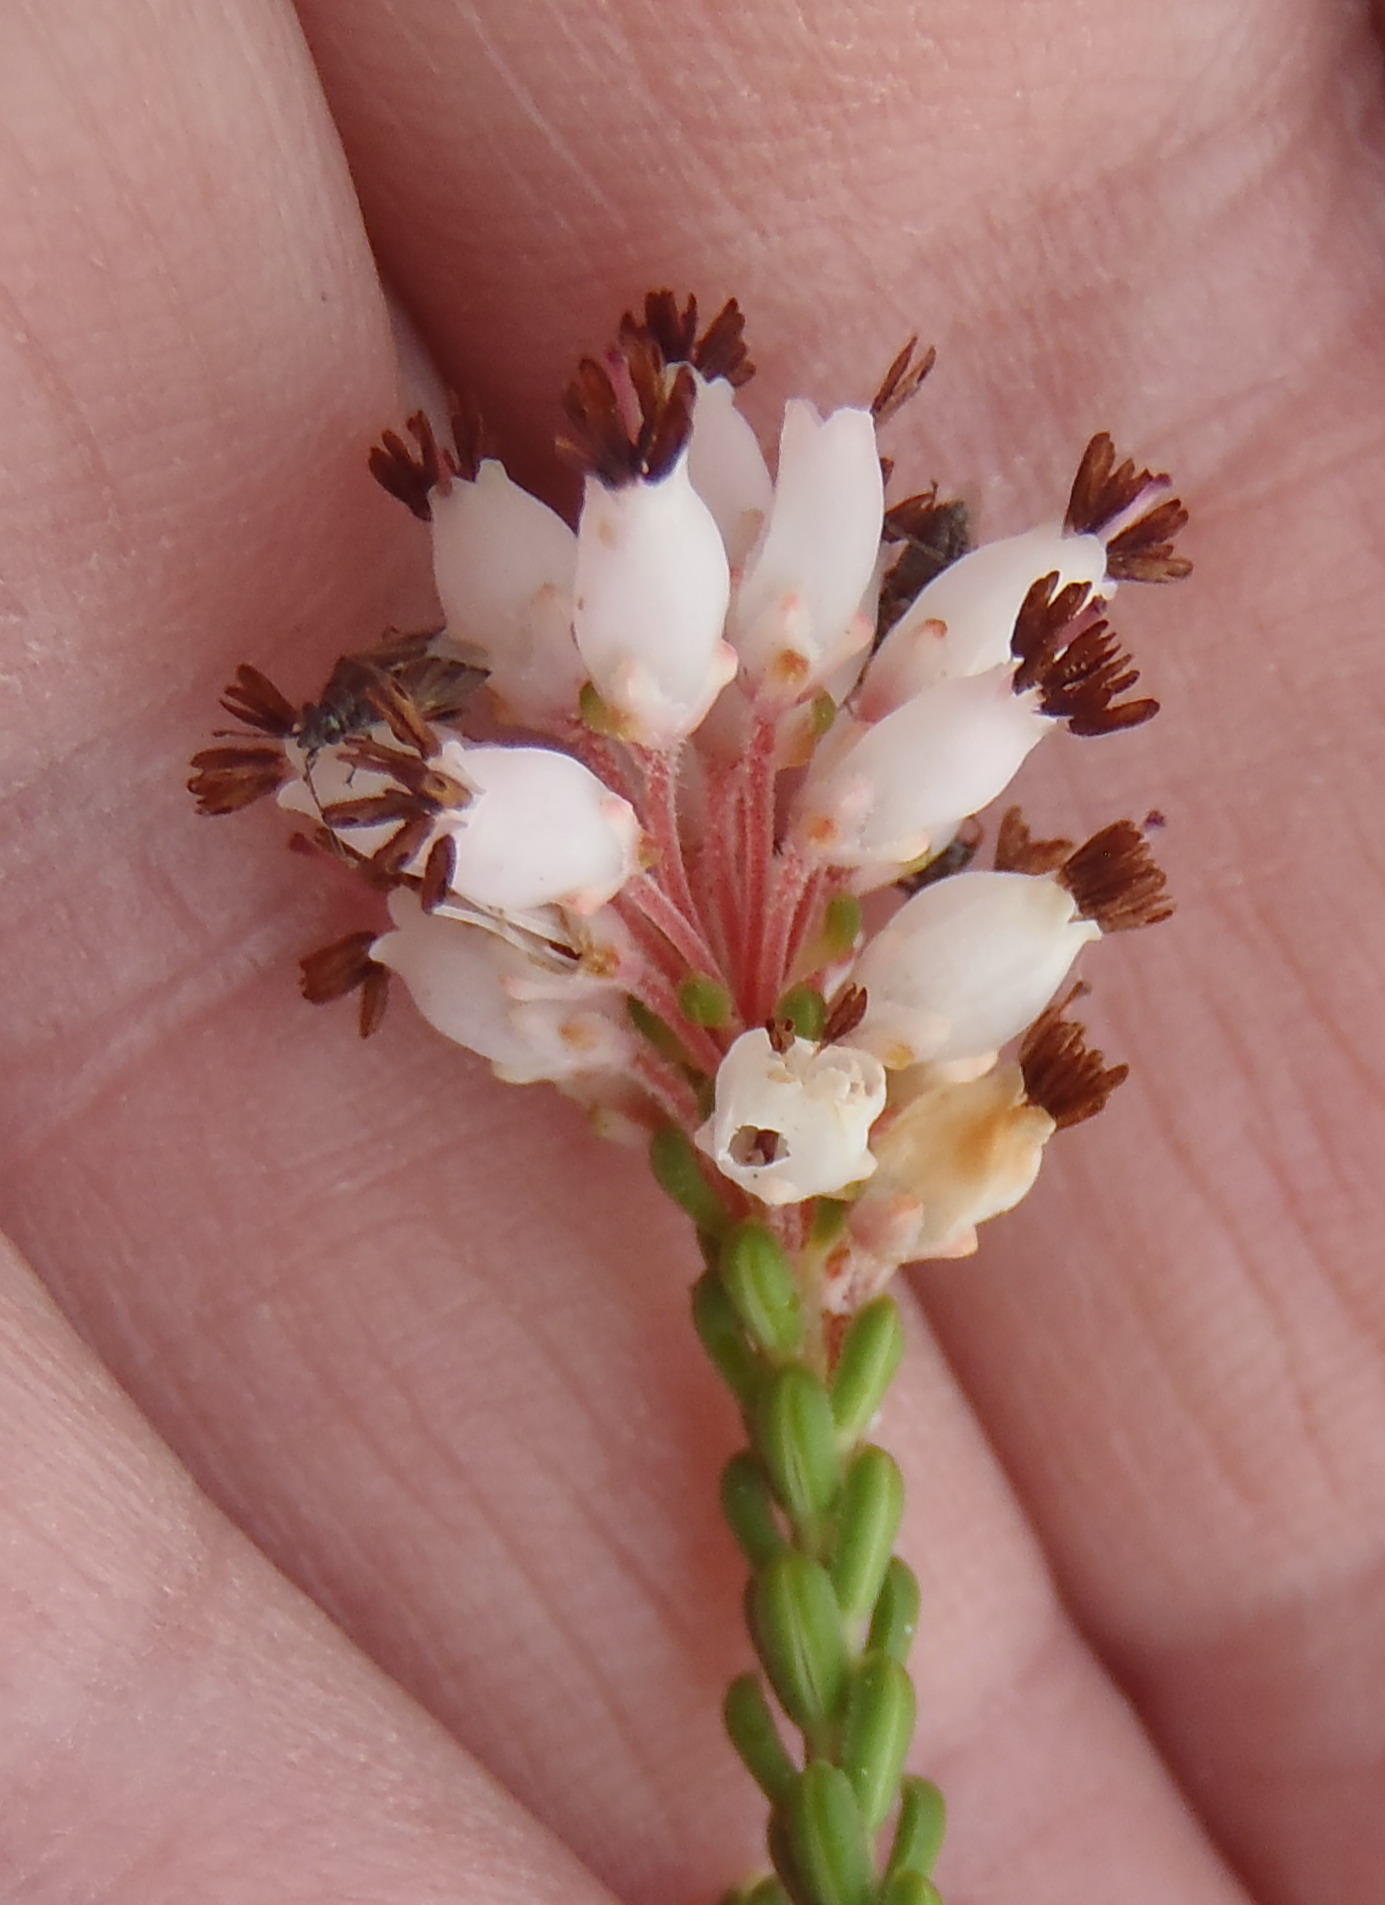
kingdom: Plantae
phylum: Tracheophyta
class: Magnoliopsida
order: Ericales
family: Ericaceae
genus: Erica
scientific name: Erica petraea
